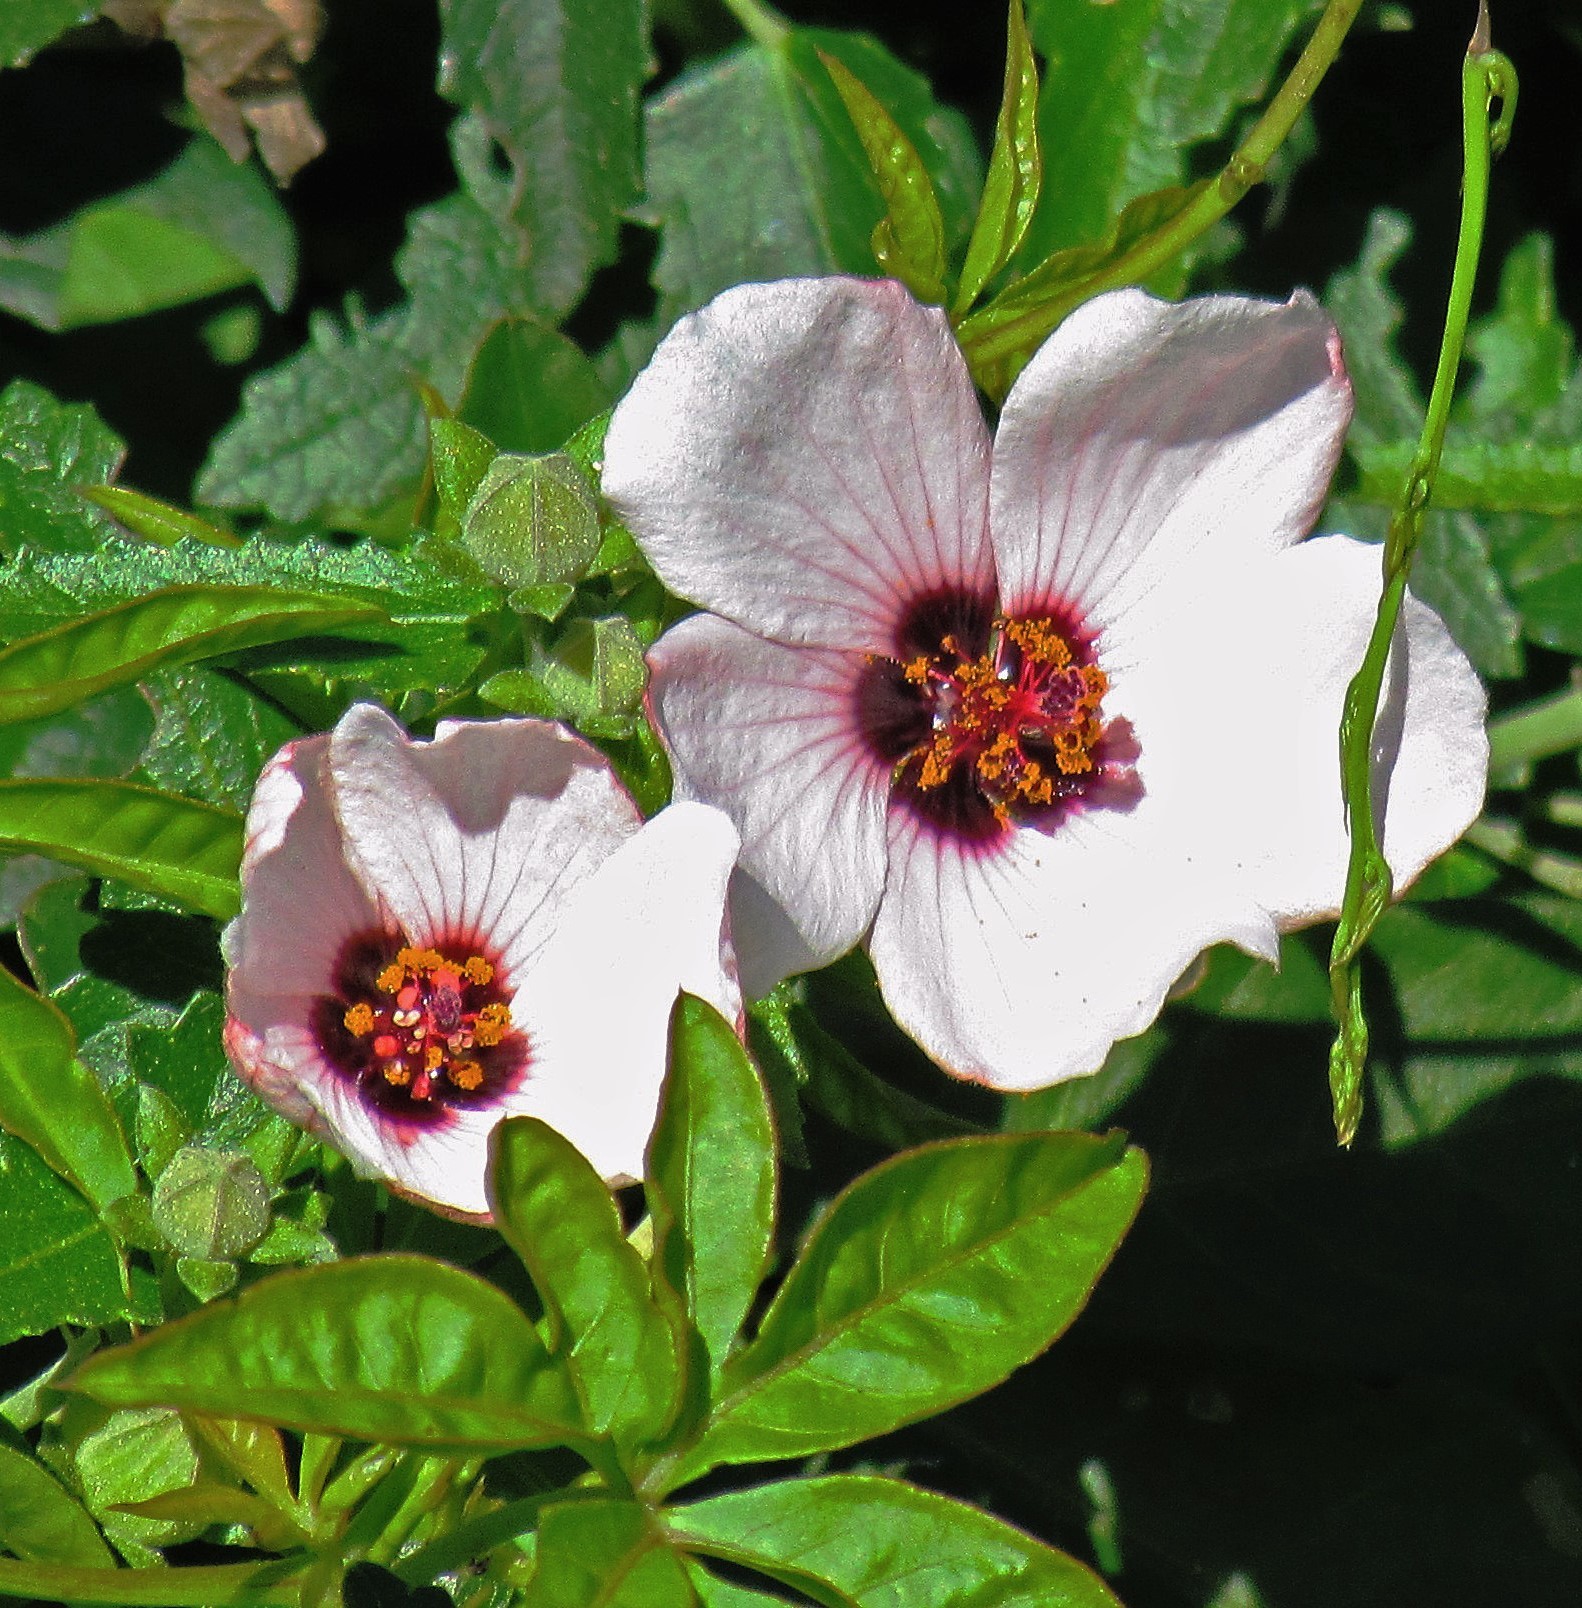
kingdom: Plantae
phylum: Tracheophyta
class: Magnoliopsida
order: Malvales
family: Malvaceae
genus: Pavonia
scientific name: Pavonia hastata
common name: Spearleaf swampmallow
